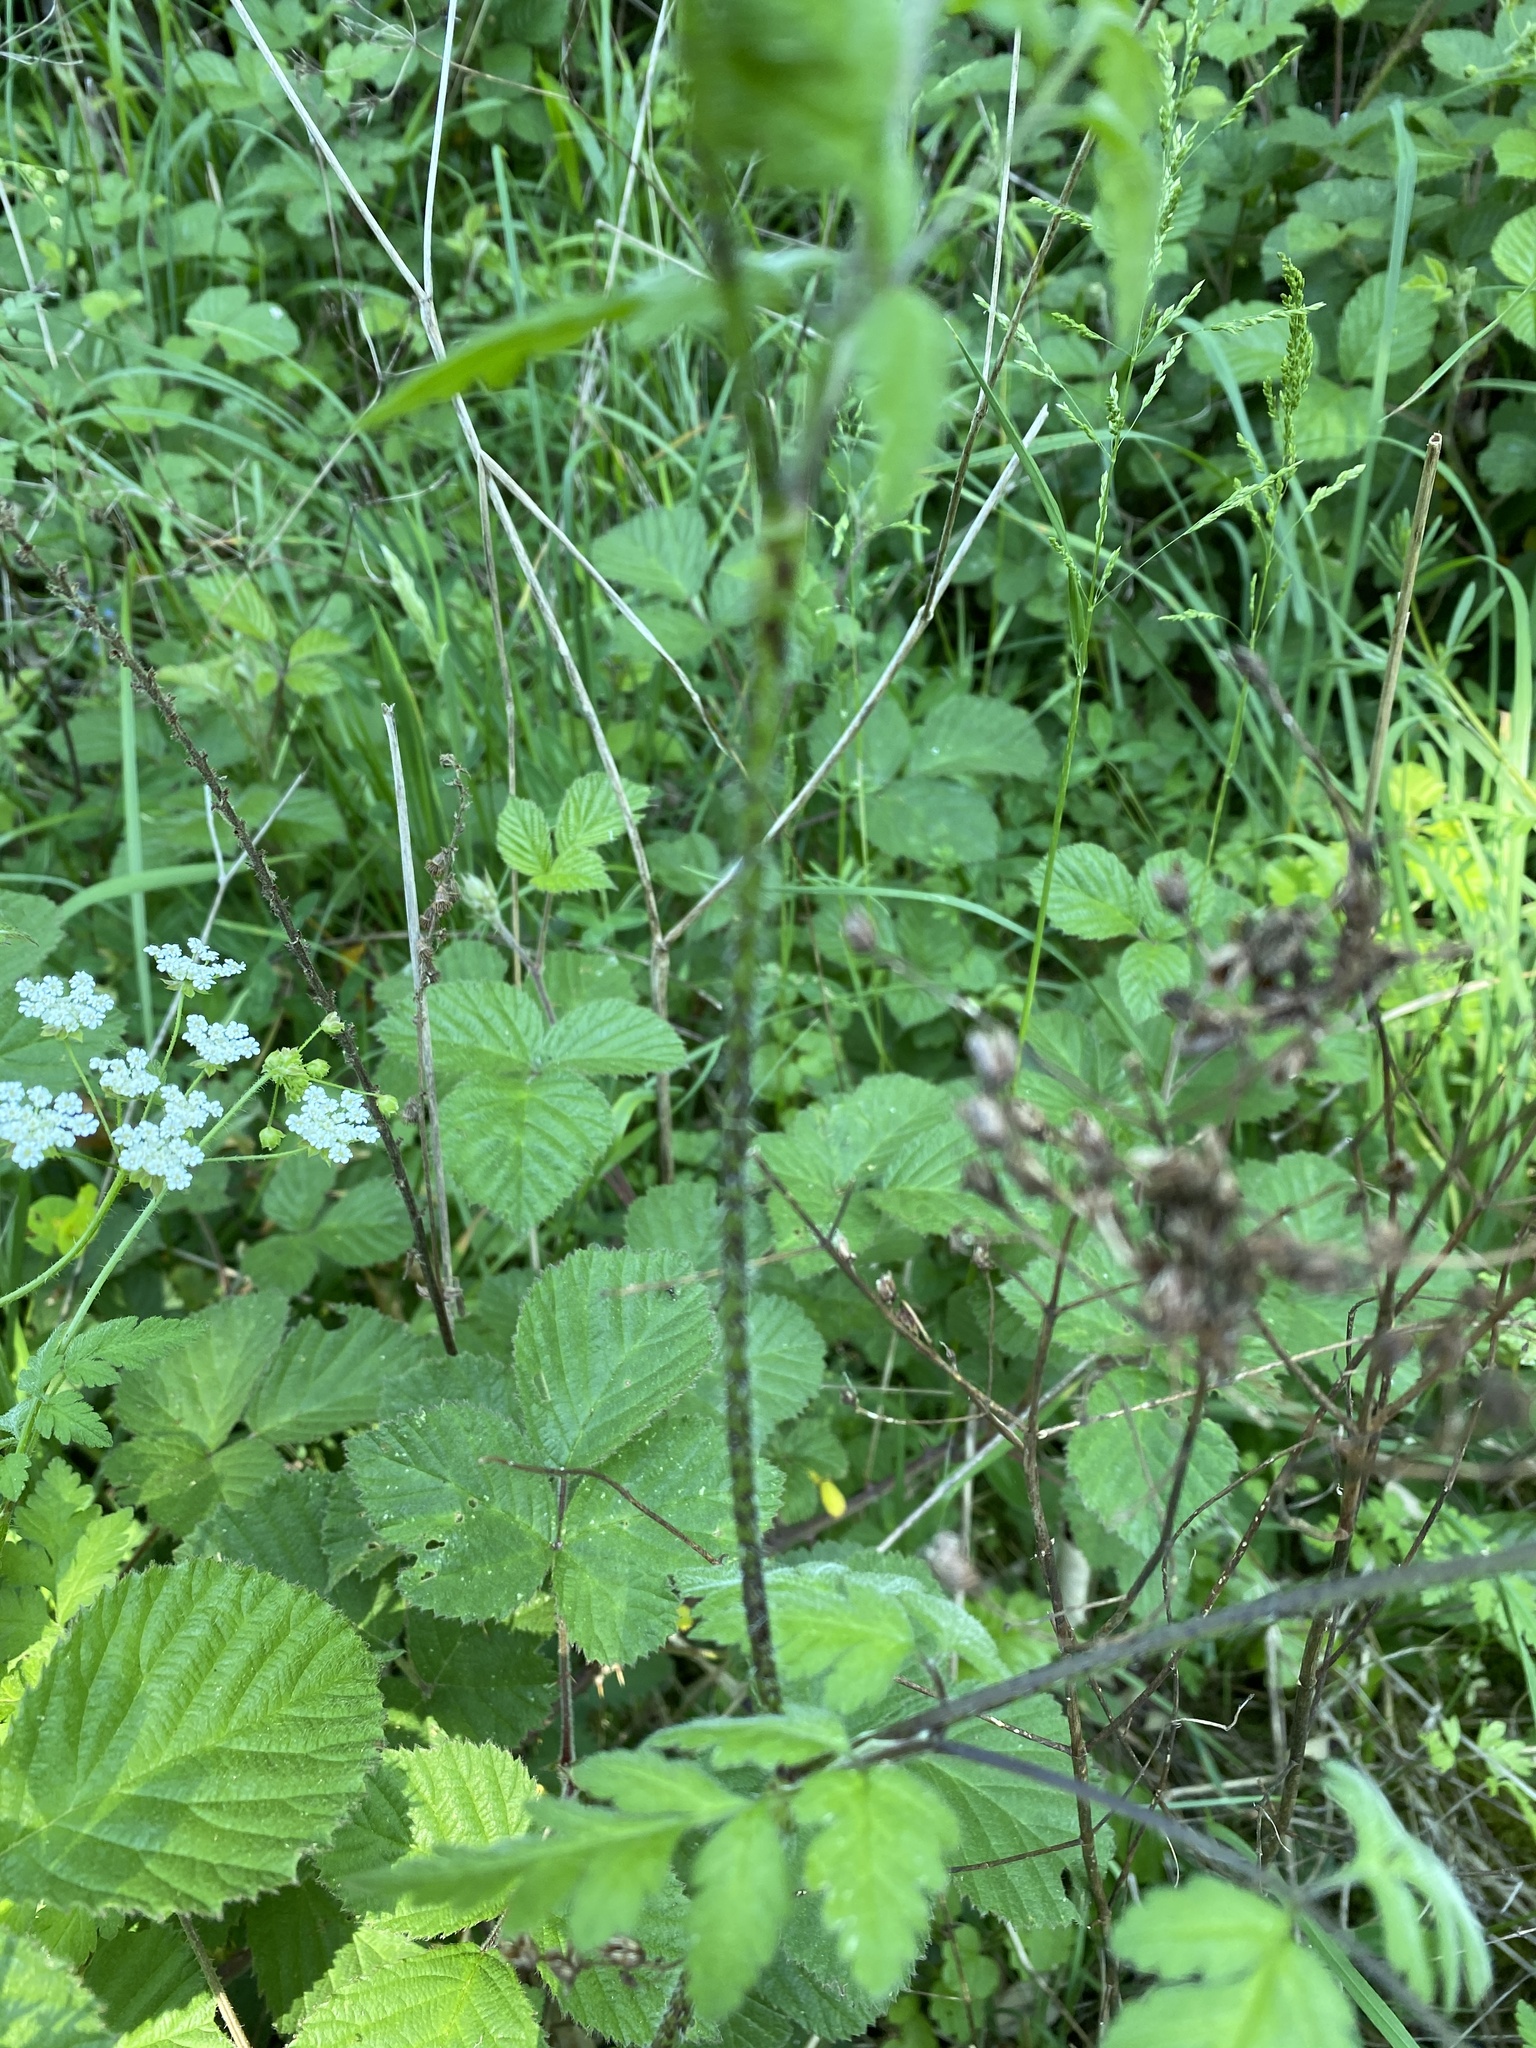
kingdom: Plantae
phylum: Tracheophyta
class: Magnoliopsida
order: Apiales
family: Apiaceae
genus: Chaerophyllum
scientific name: Chaerophyllum temulum
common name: Rough chervil
